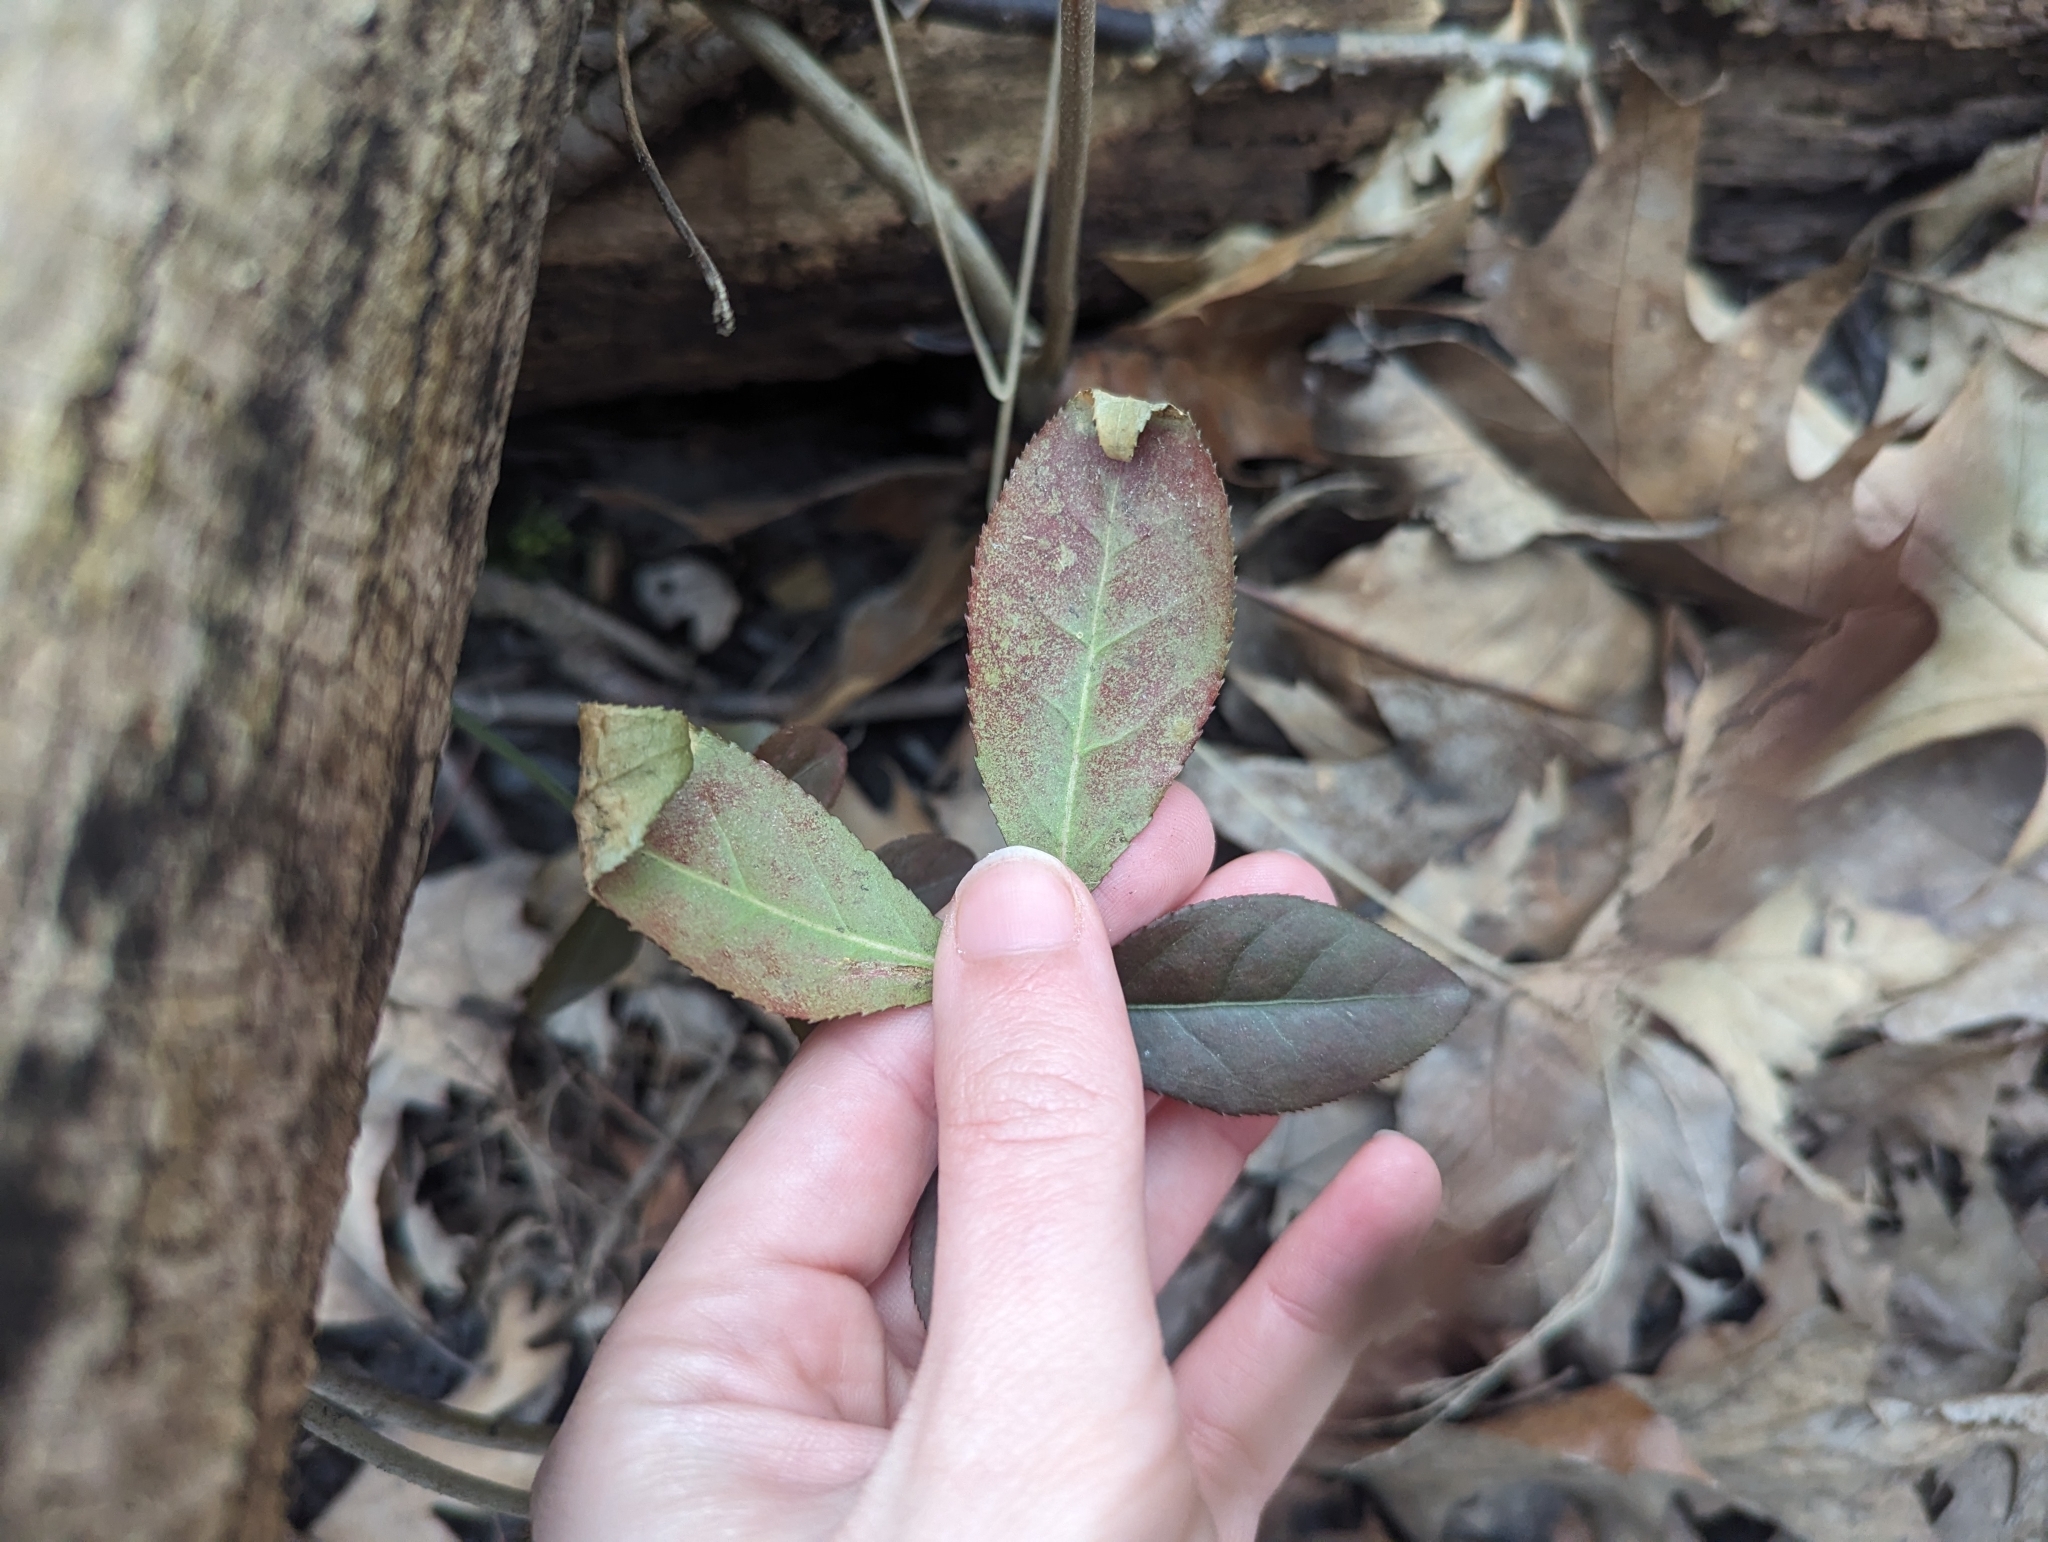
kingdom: Plantae
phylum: Tracheophyta
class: Magnoliopsida
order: Celastrales
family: Celastraceae
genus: Euonymus
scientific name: Euonymus alatus
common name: Winged euonymus
